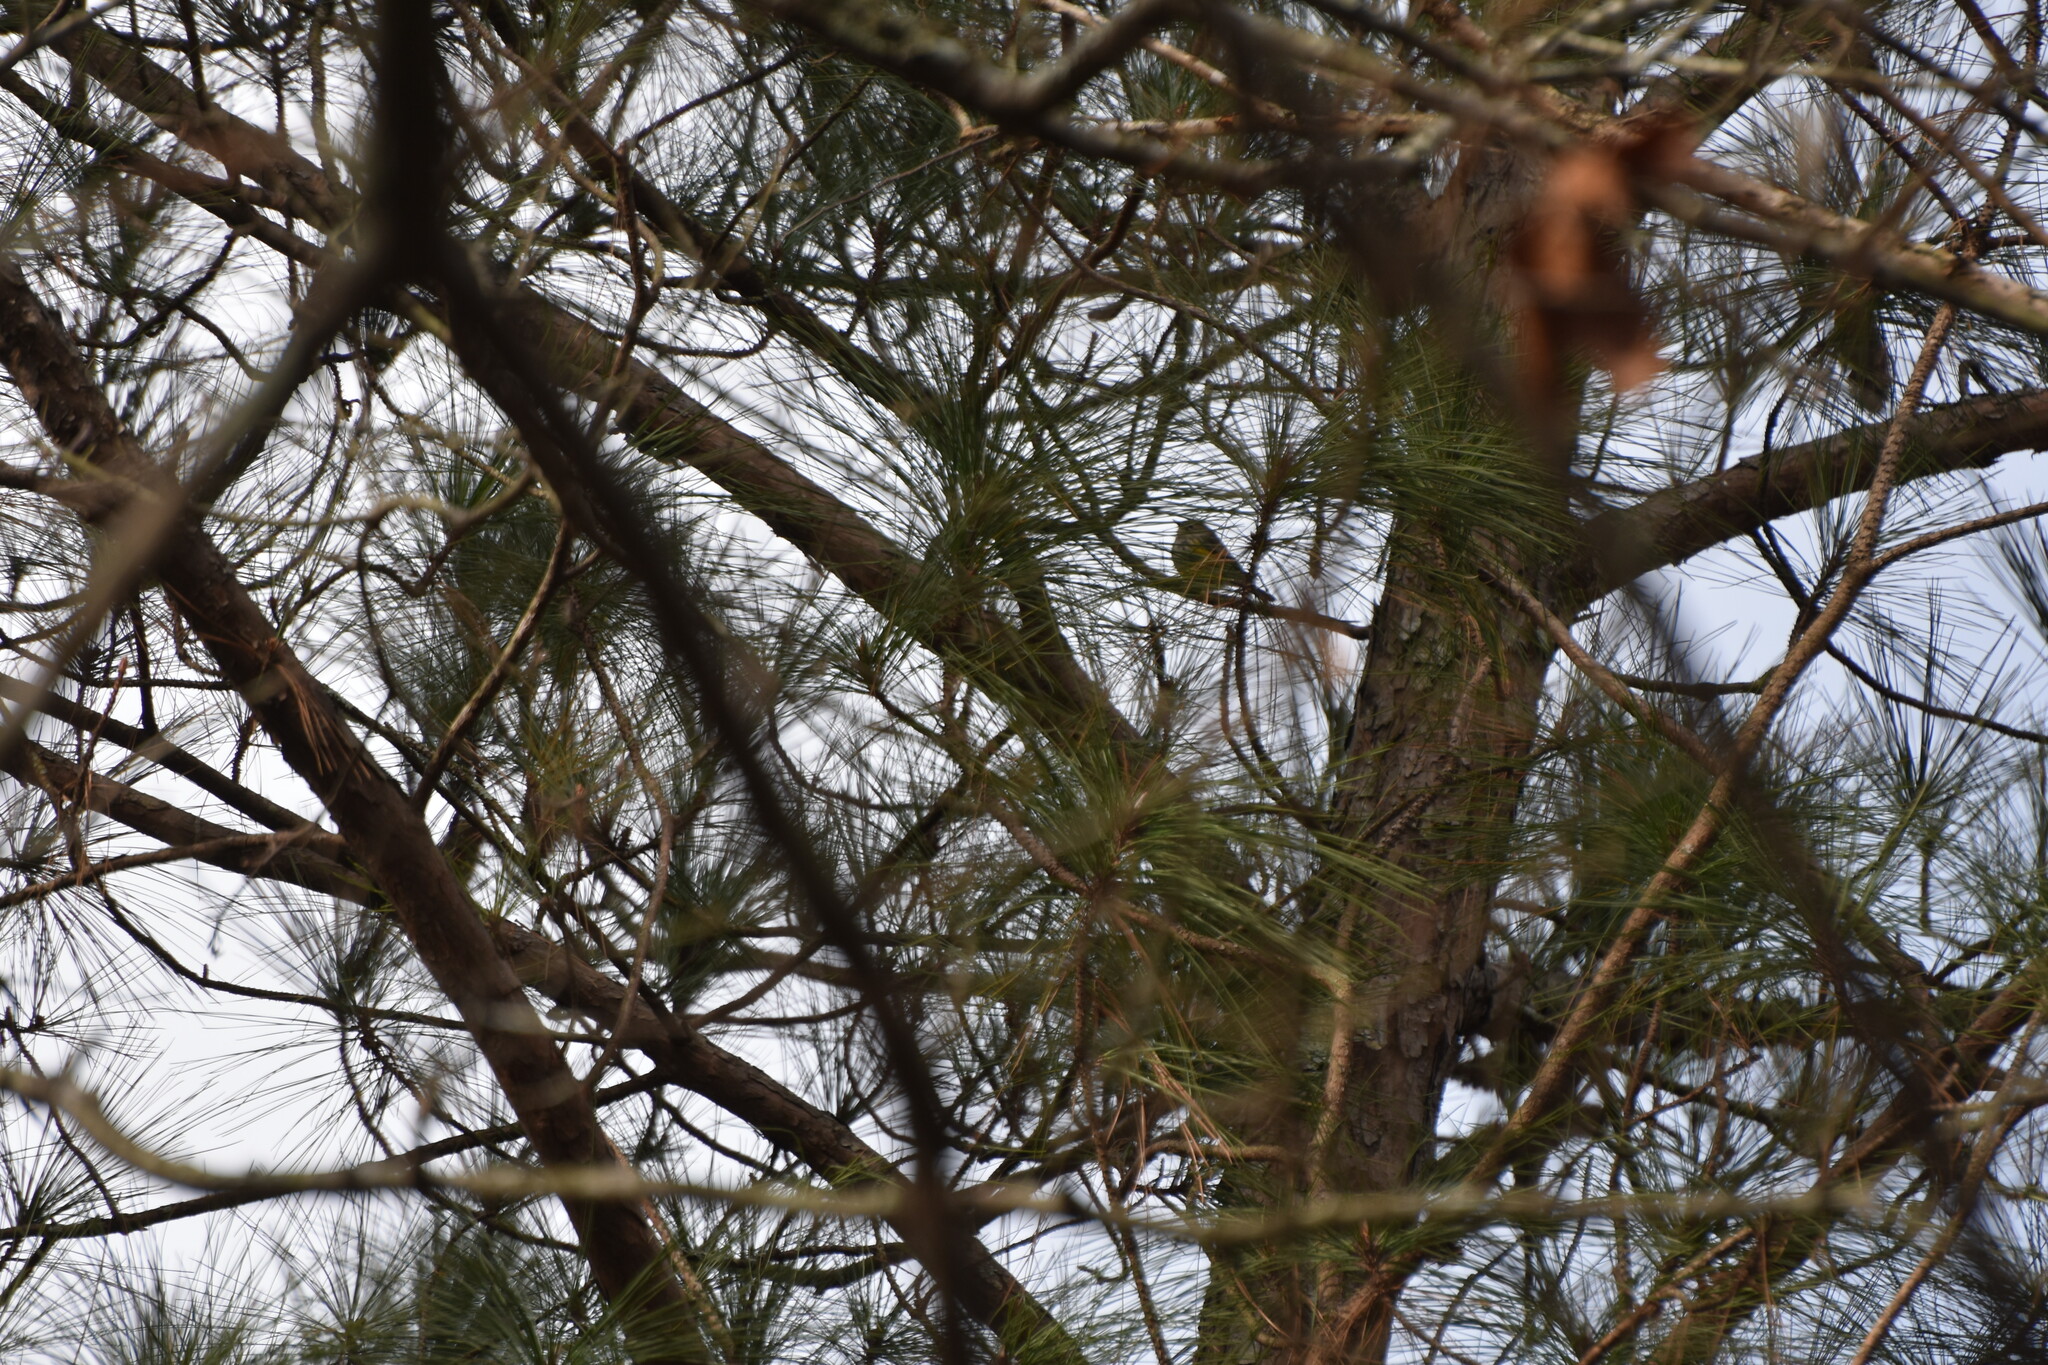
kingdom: Animalia
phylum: Chordata
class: Aves
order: Passeriformes
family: Parulidae
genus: Setophaga
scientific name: Setophaga coronata
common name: Myrtle warbler
